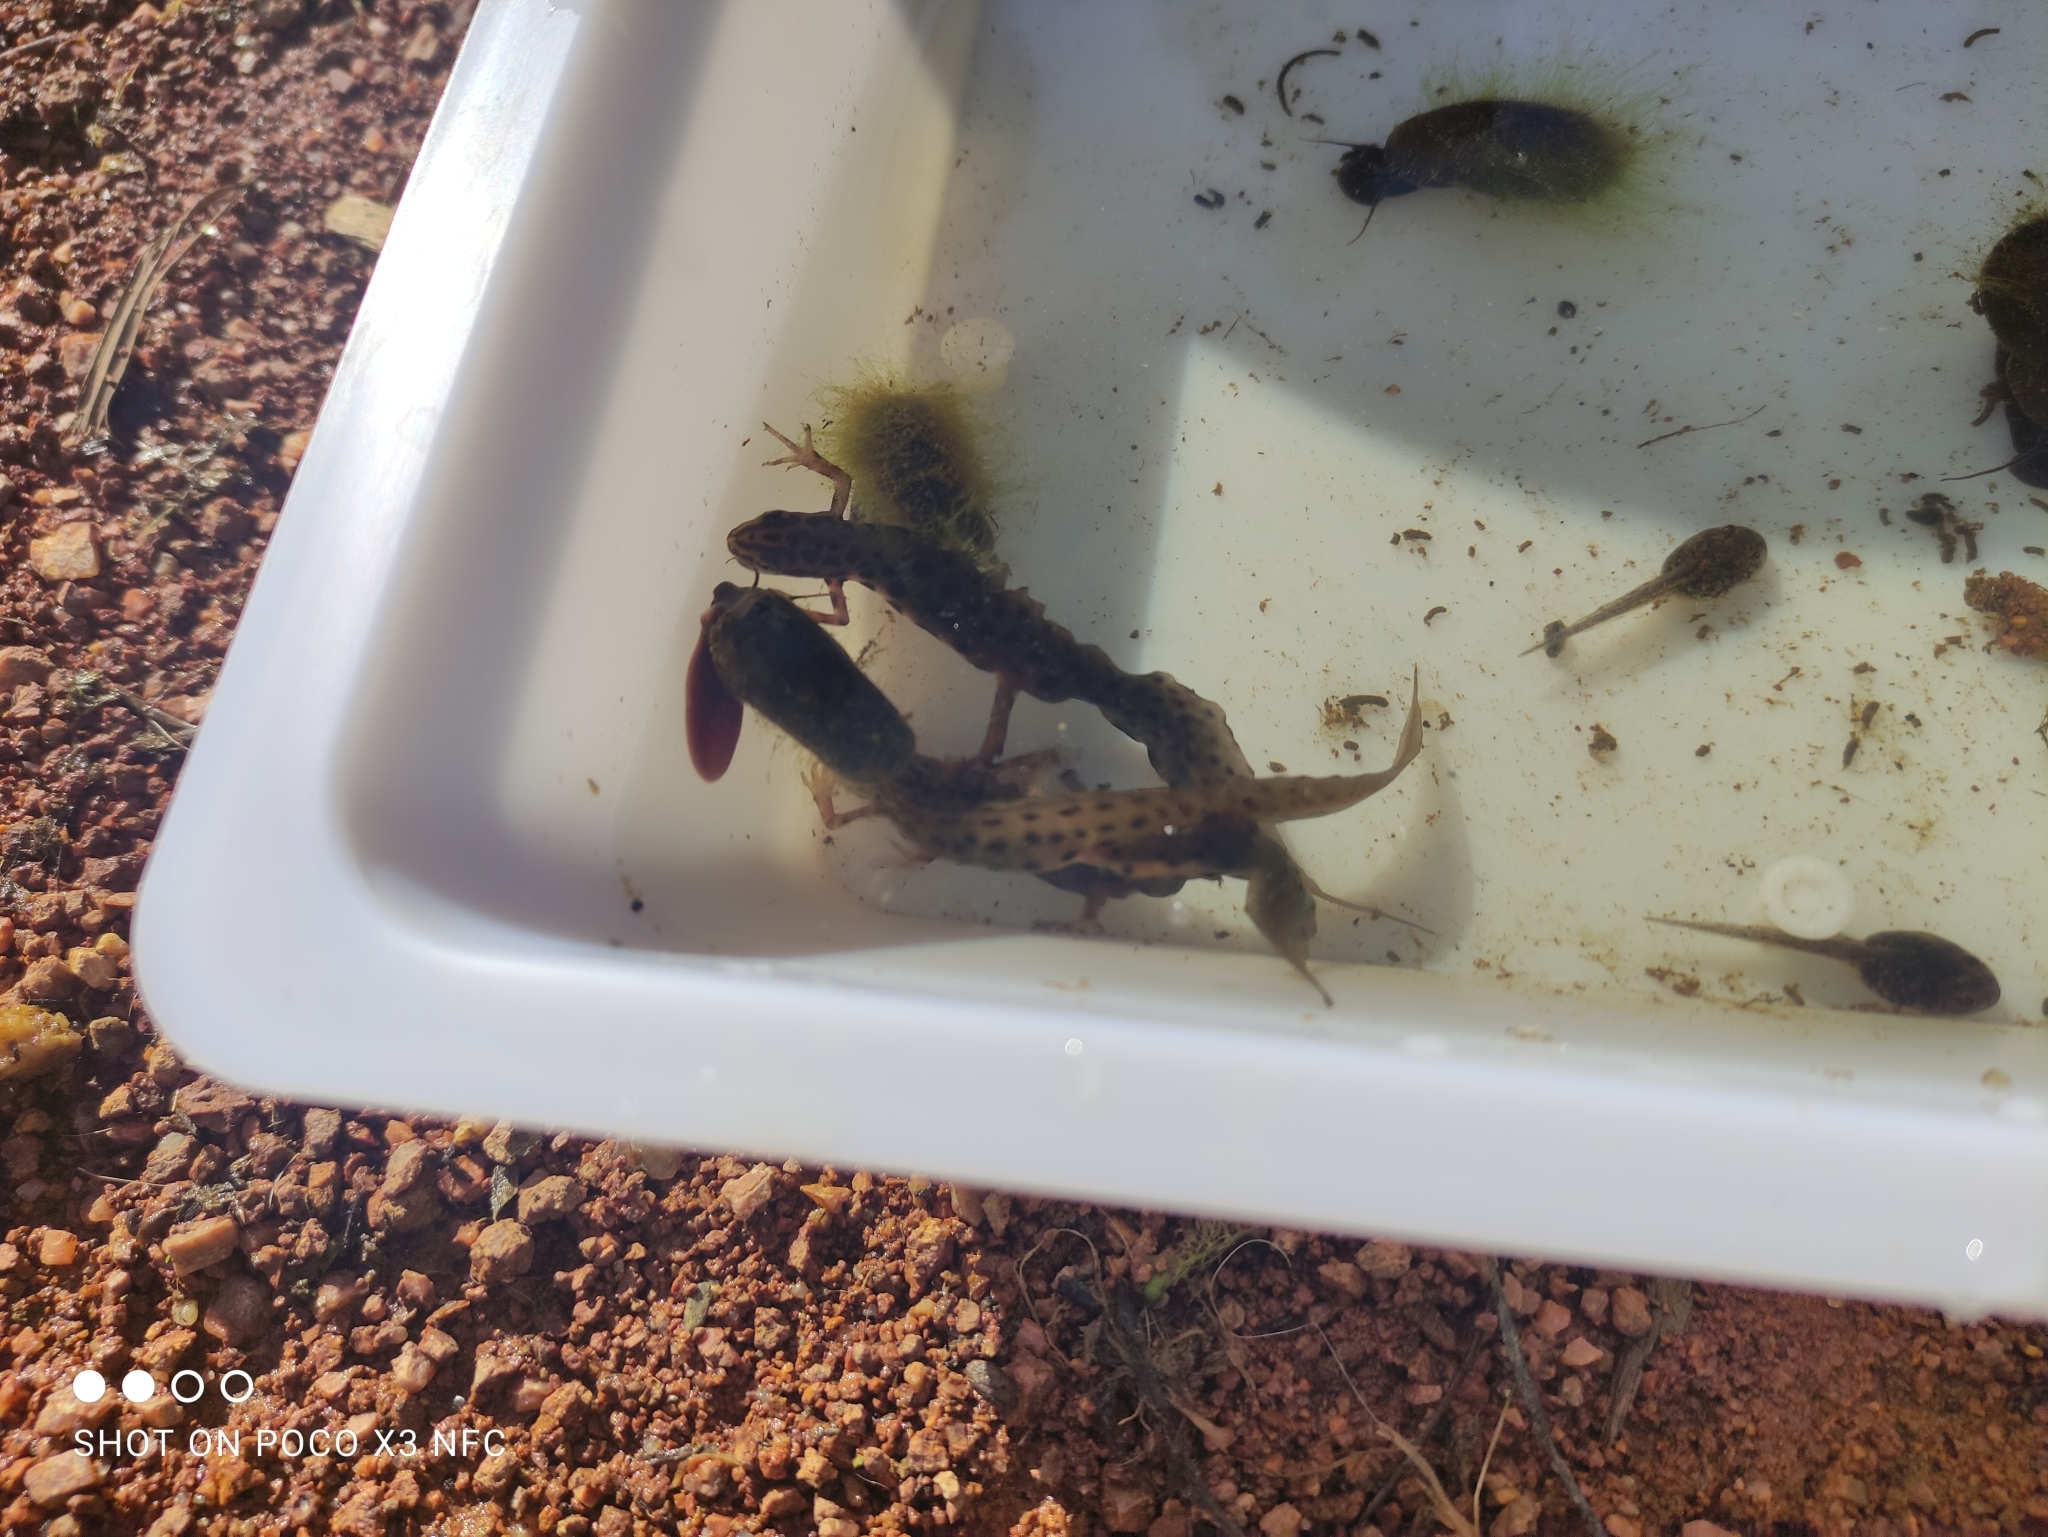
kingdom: Animalia
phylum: Chordata
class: Amphibia
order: Caudata
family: Salamandridae
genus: Lissotriton
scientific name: Lissotriton vulgaris
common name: Smooth newt
